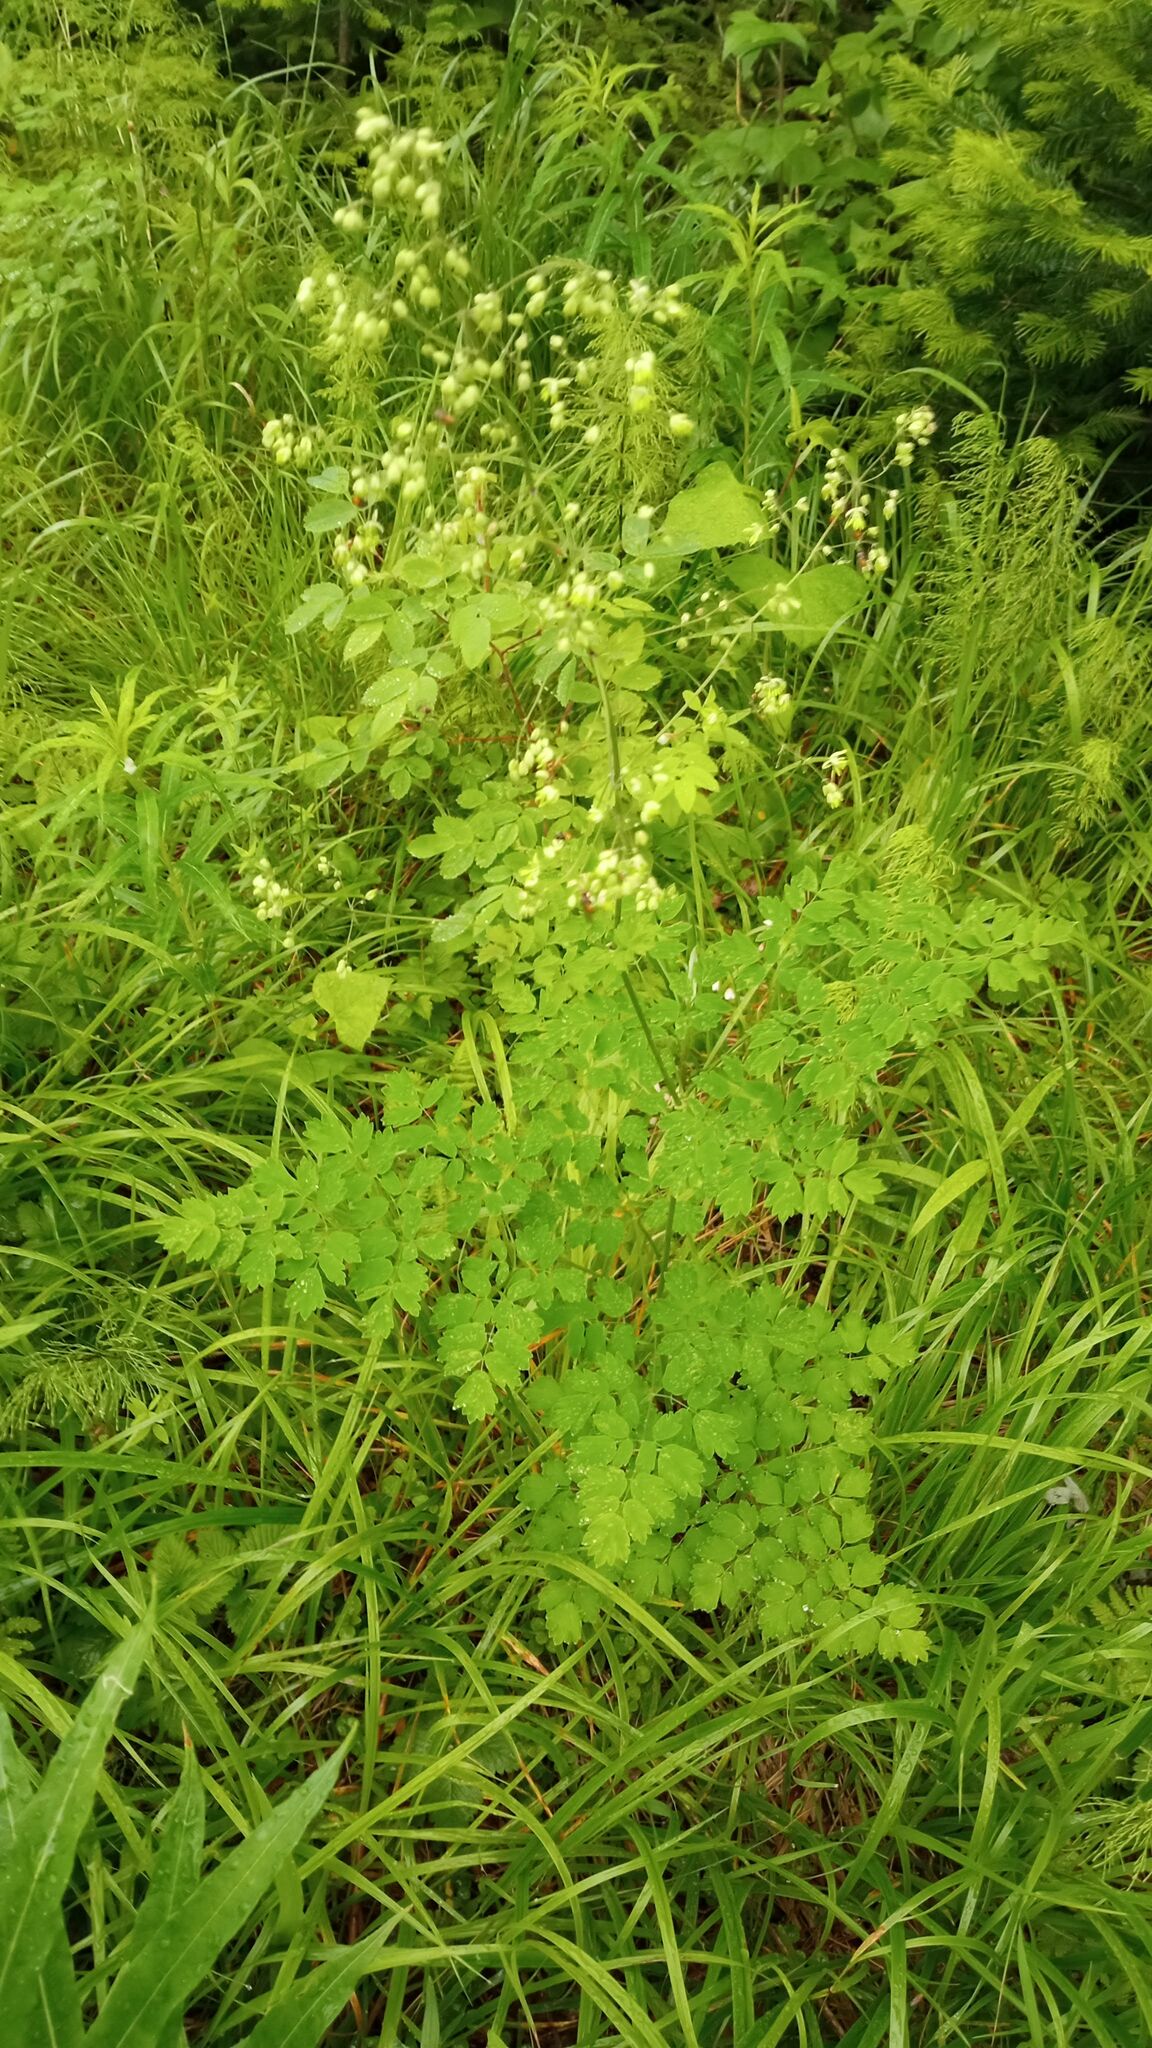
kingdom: Plantae
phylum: Tracheophyta
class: Magnoliopsida
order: Ranunculales
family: Ranunculaceae
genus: Thalictrum
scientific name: Thalictrum minus
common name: Lesser meadow-rue
